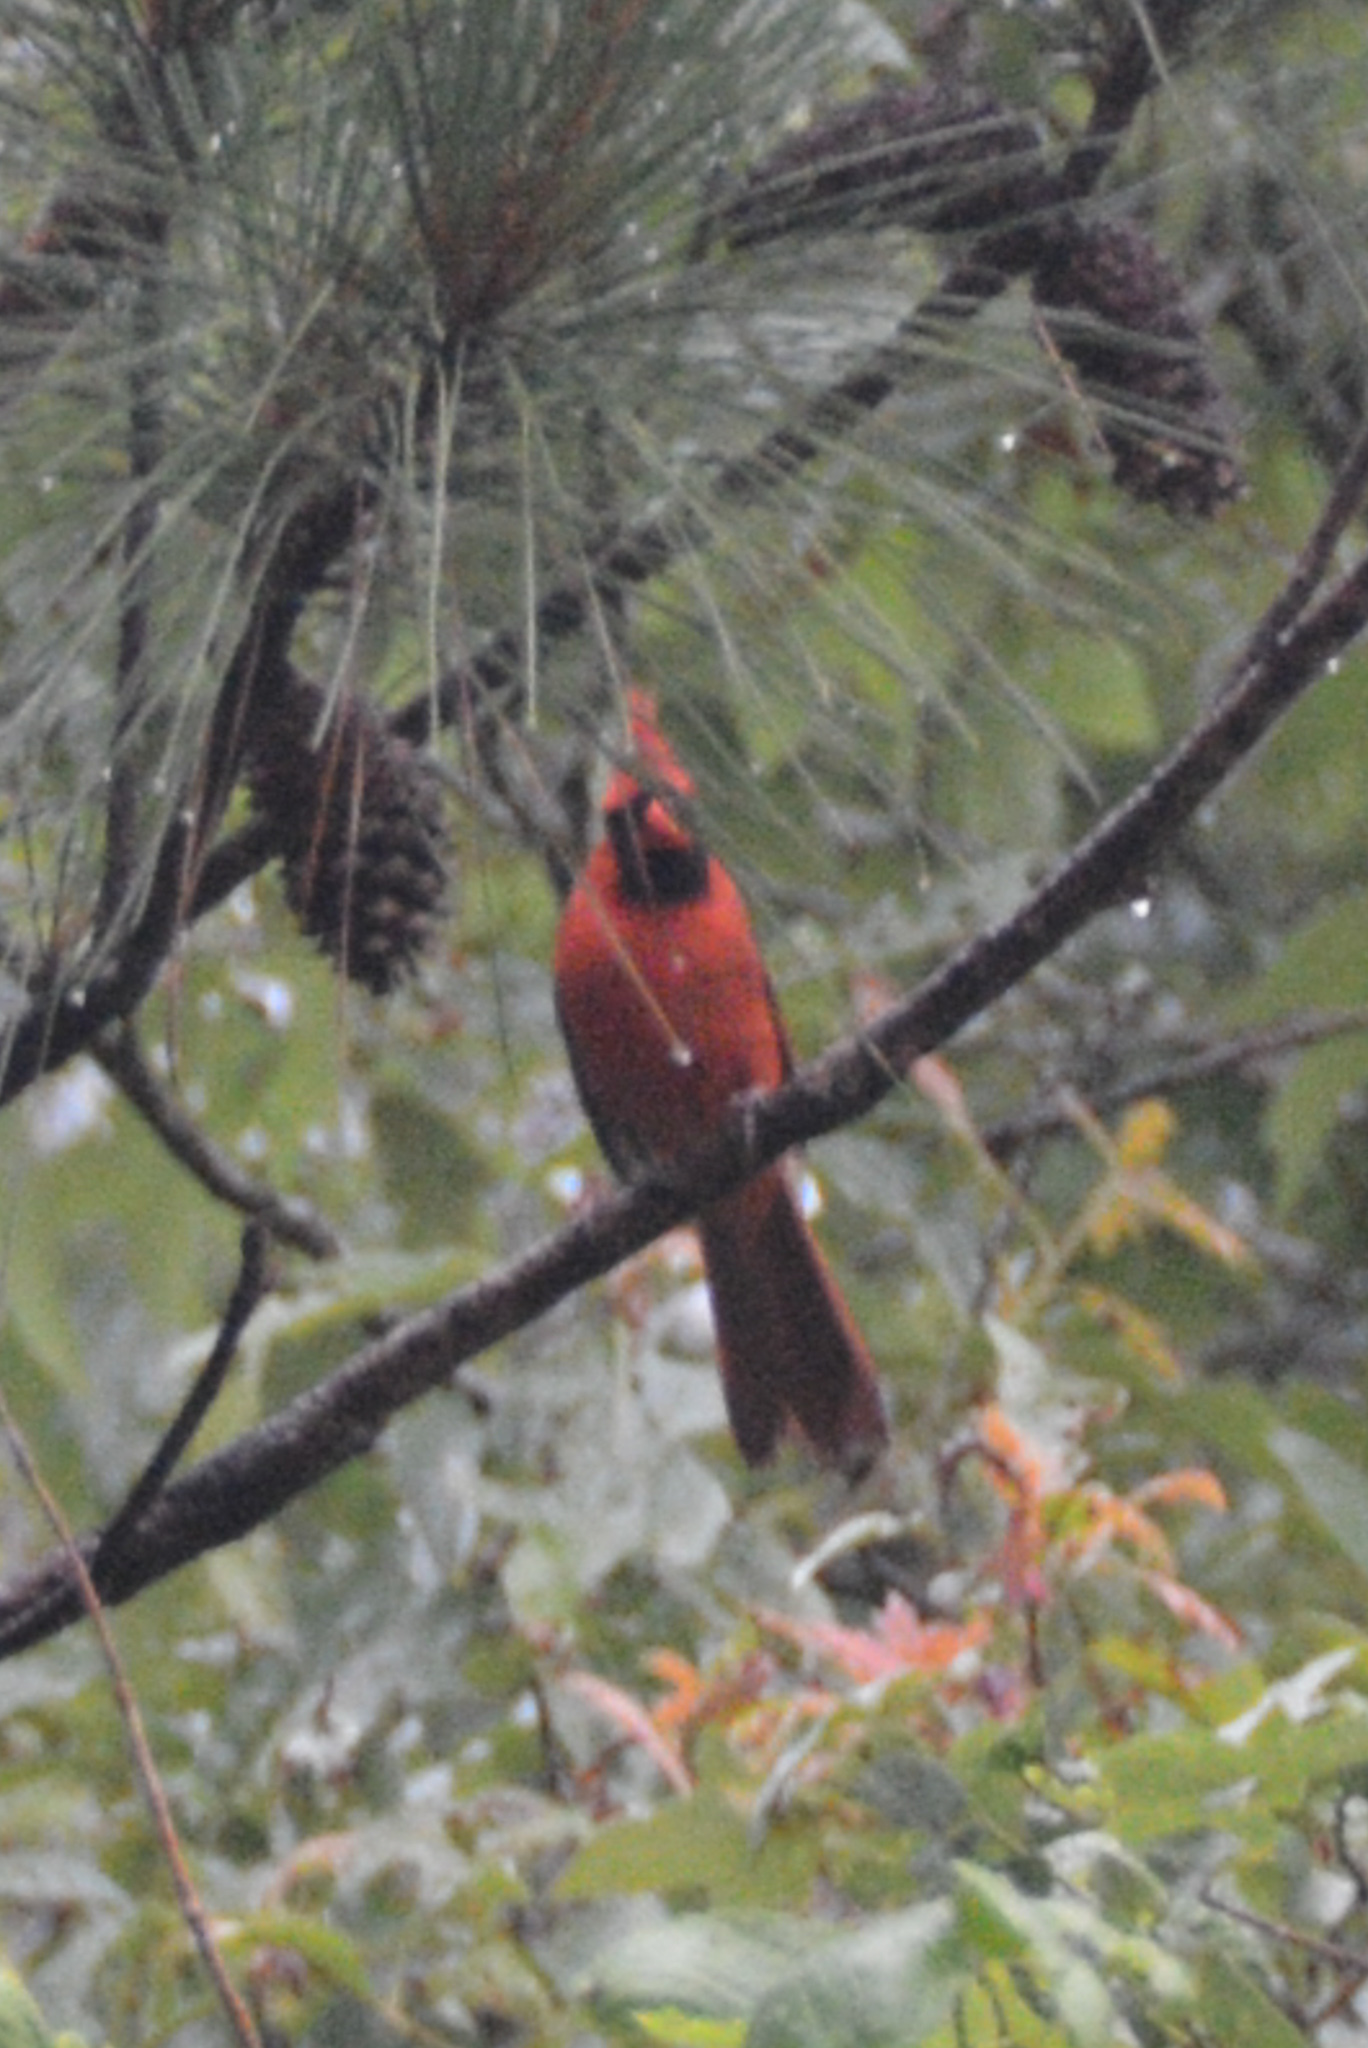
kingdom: Animalia
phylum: Chordata
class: Aves
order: Passeriformes
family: Cardinalidae
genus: Cardinalis
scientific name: Cardinalis cardinalis
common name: Northern cardinal
